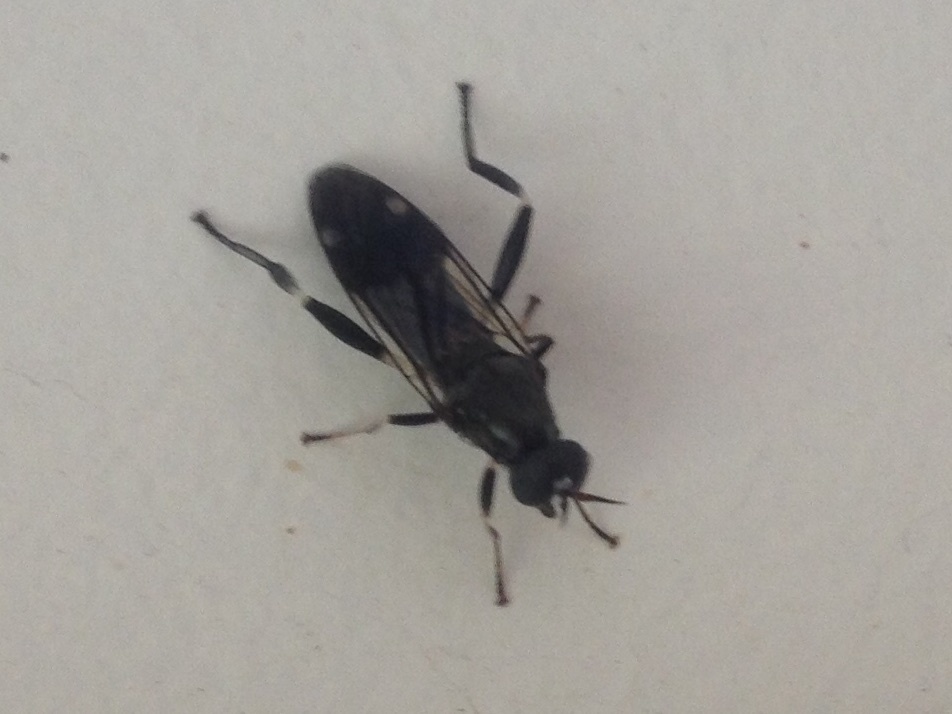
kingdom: Animalia
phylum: Arthropoda
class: Insecta
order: Diptera
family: Stratiomyidae
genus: Exaireta
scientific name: Exaireta spinigera
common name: Blue soldier fly
